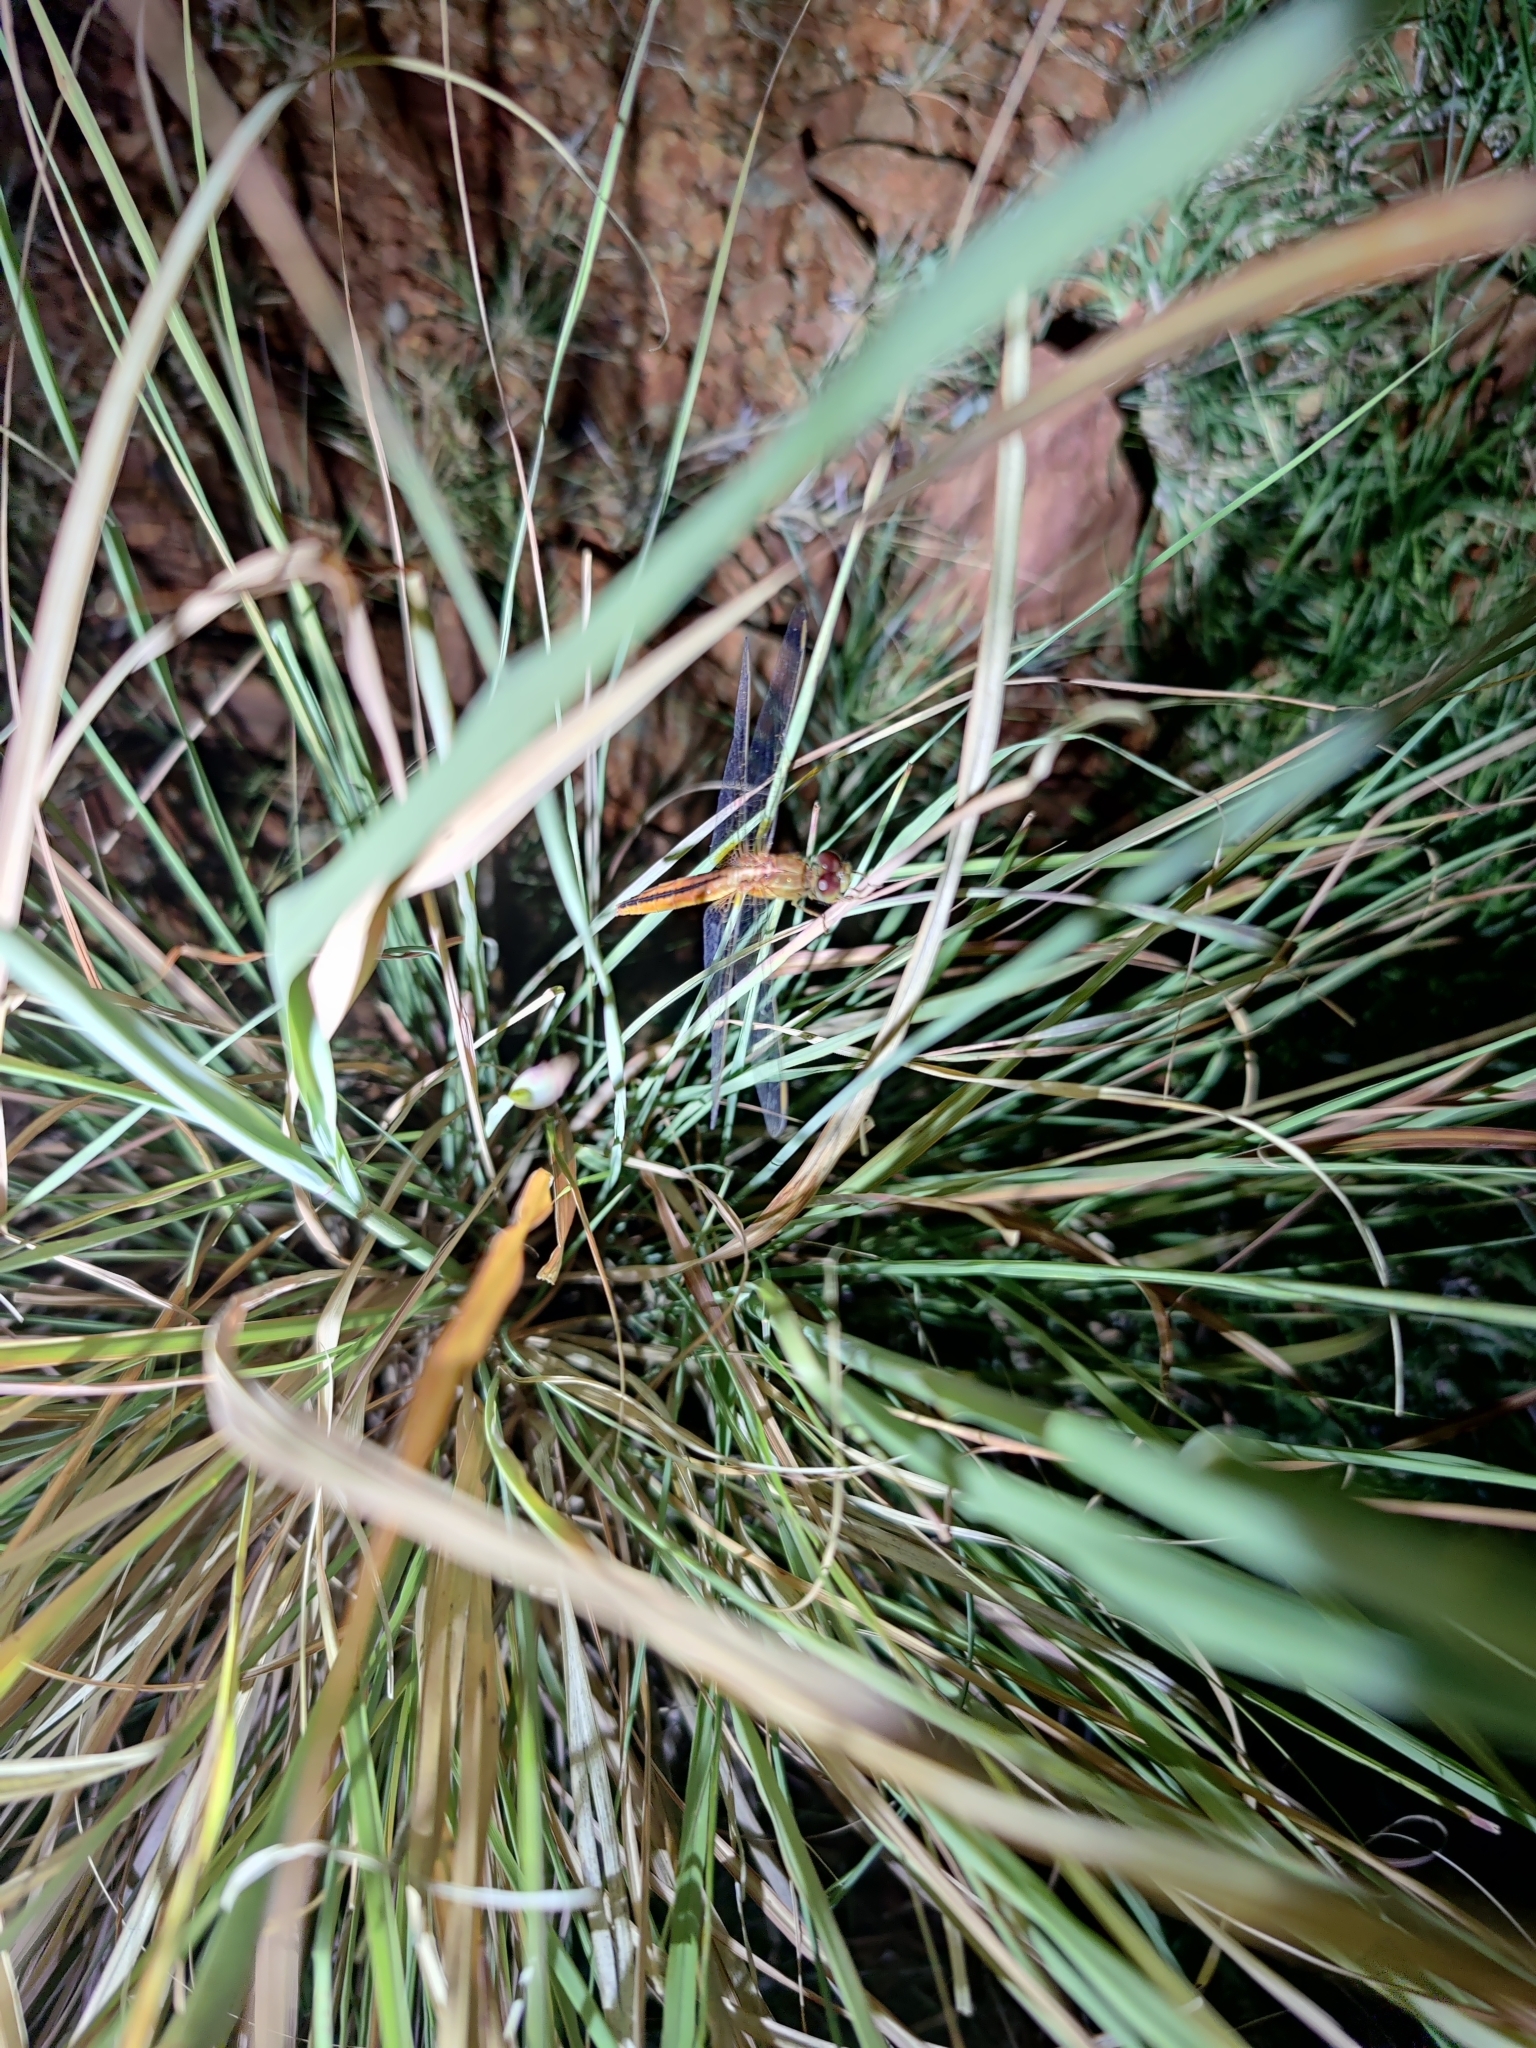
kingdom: Animalia
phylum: Arthropoda
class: Insecta
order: Odonata
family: Libellulidae
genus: Crocothemis
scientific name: Crocothemis servilia
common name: Scarlet skimmer
